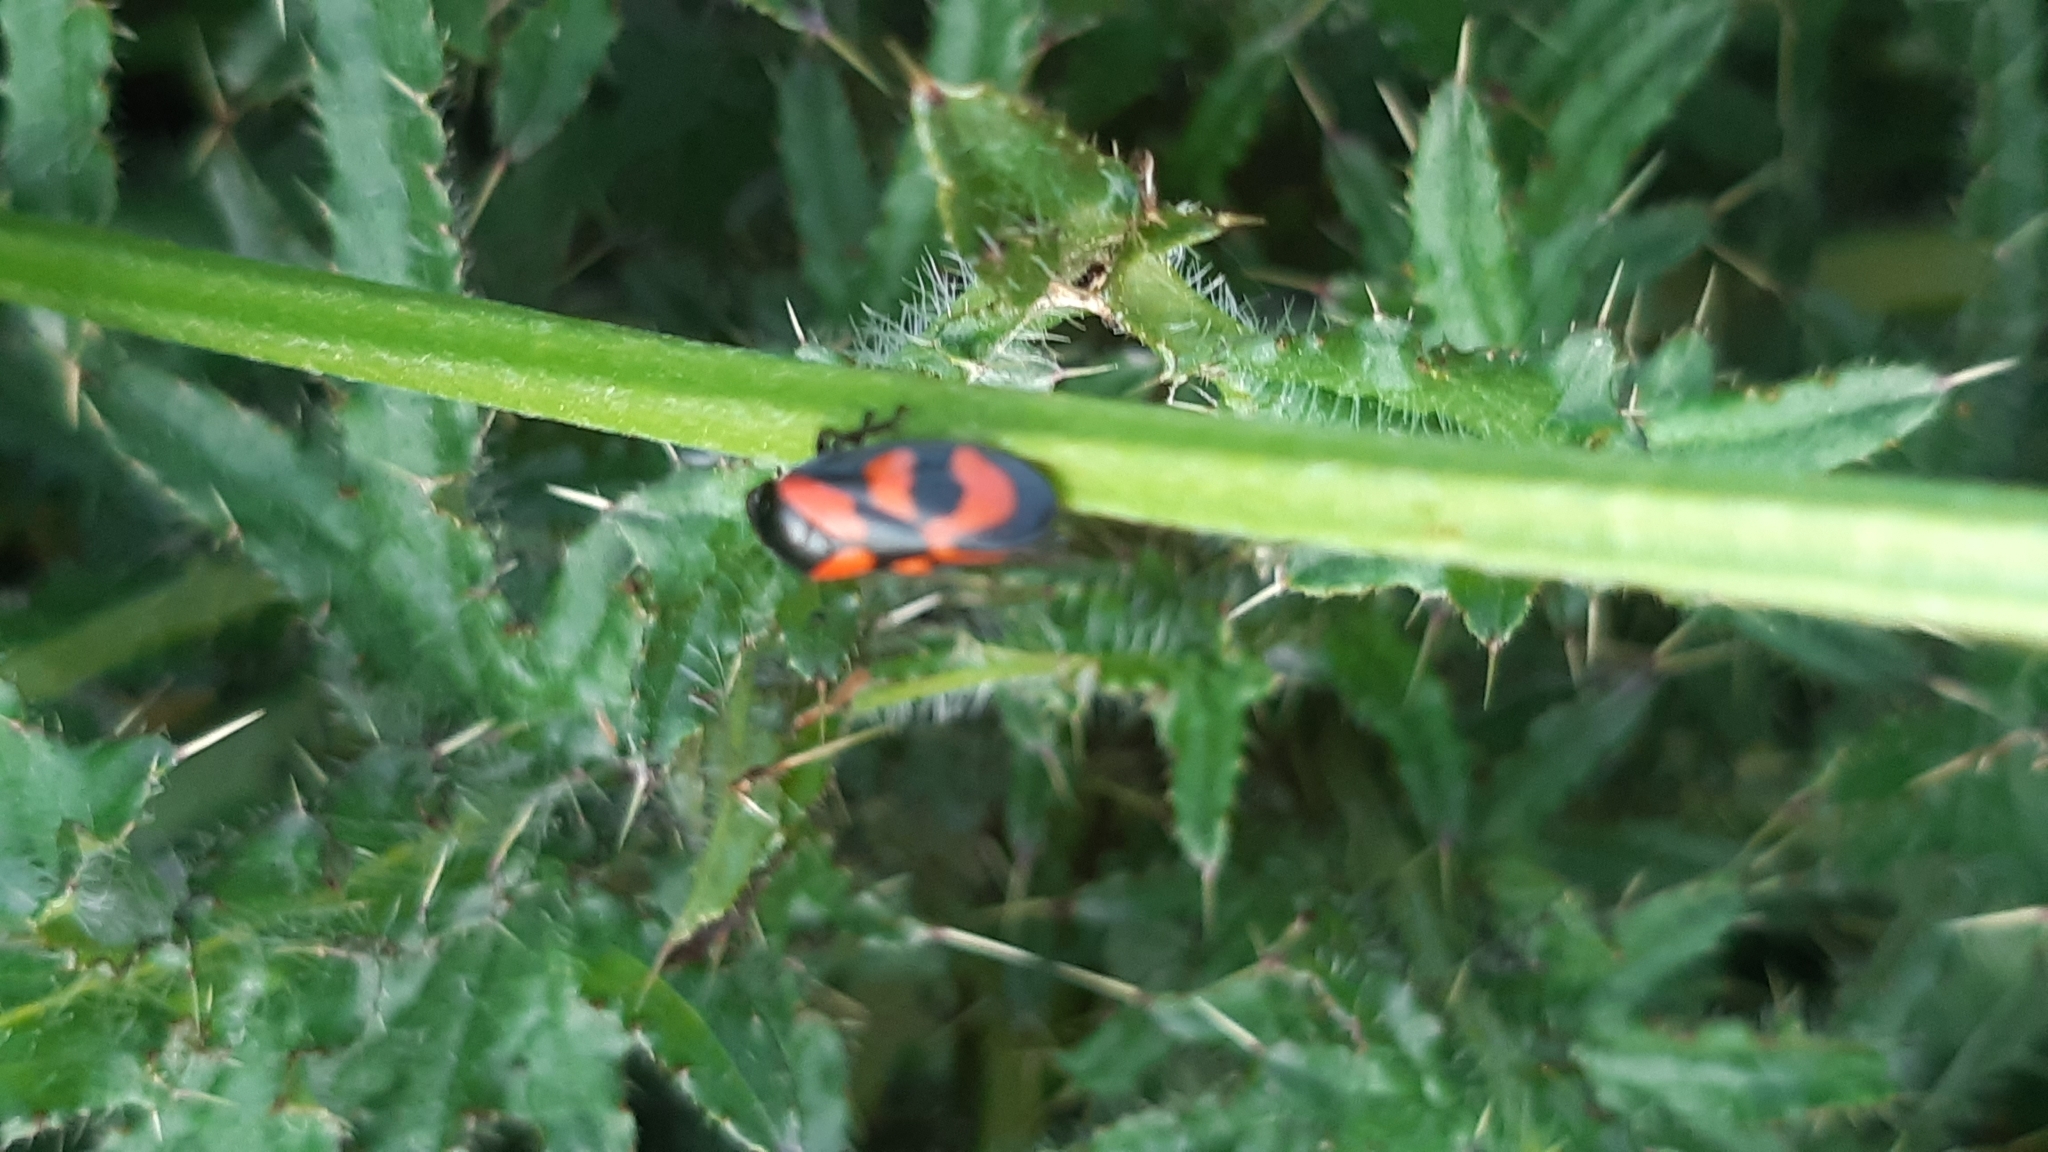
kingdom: Animalia
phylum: Arthropoda
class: Insecta
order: Hemiptera
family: Cercopidae
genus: Cercopis
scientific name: Cercopis vulnerata
